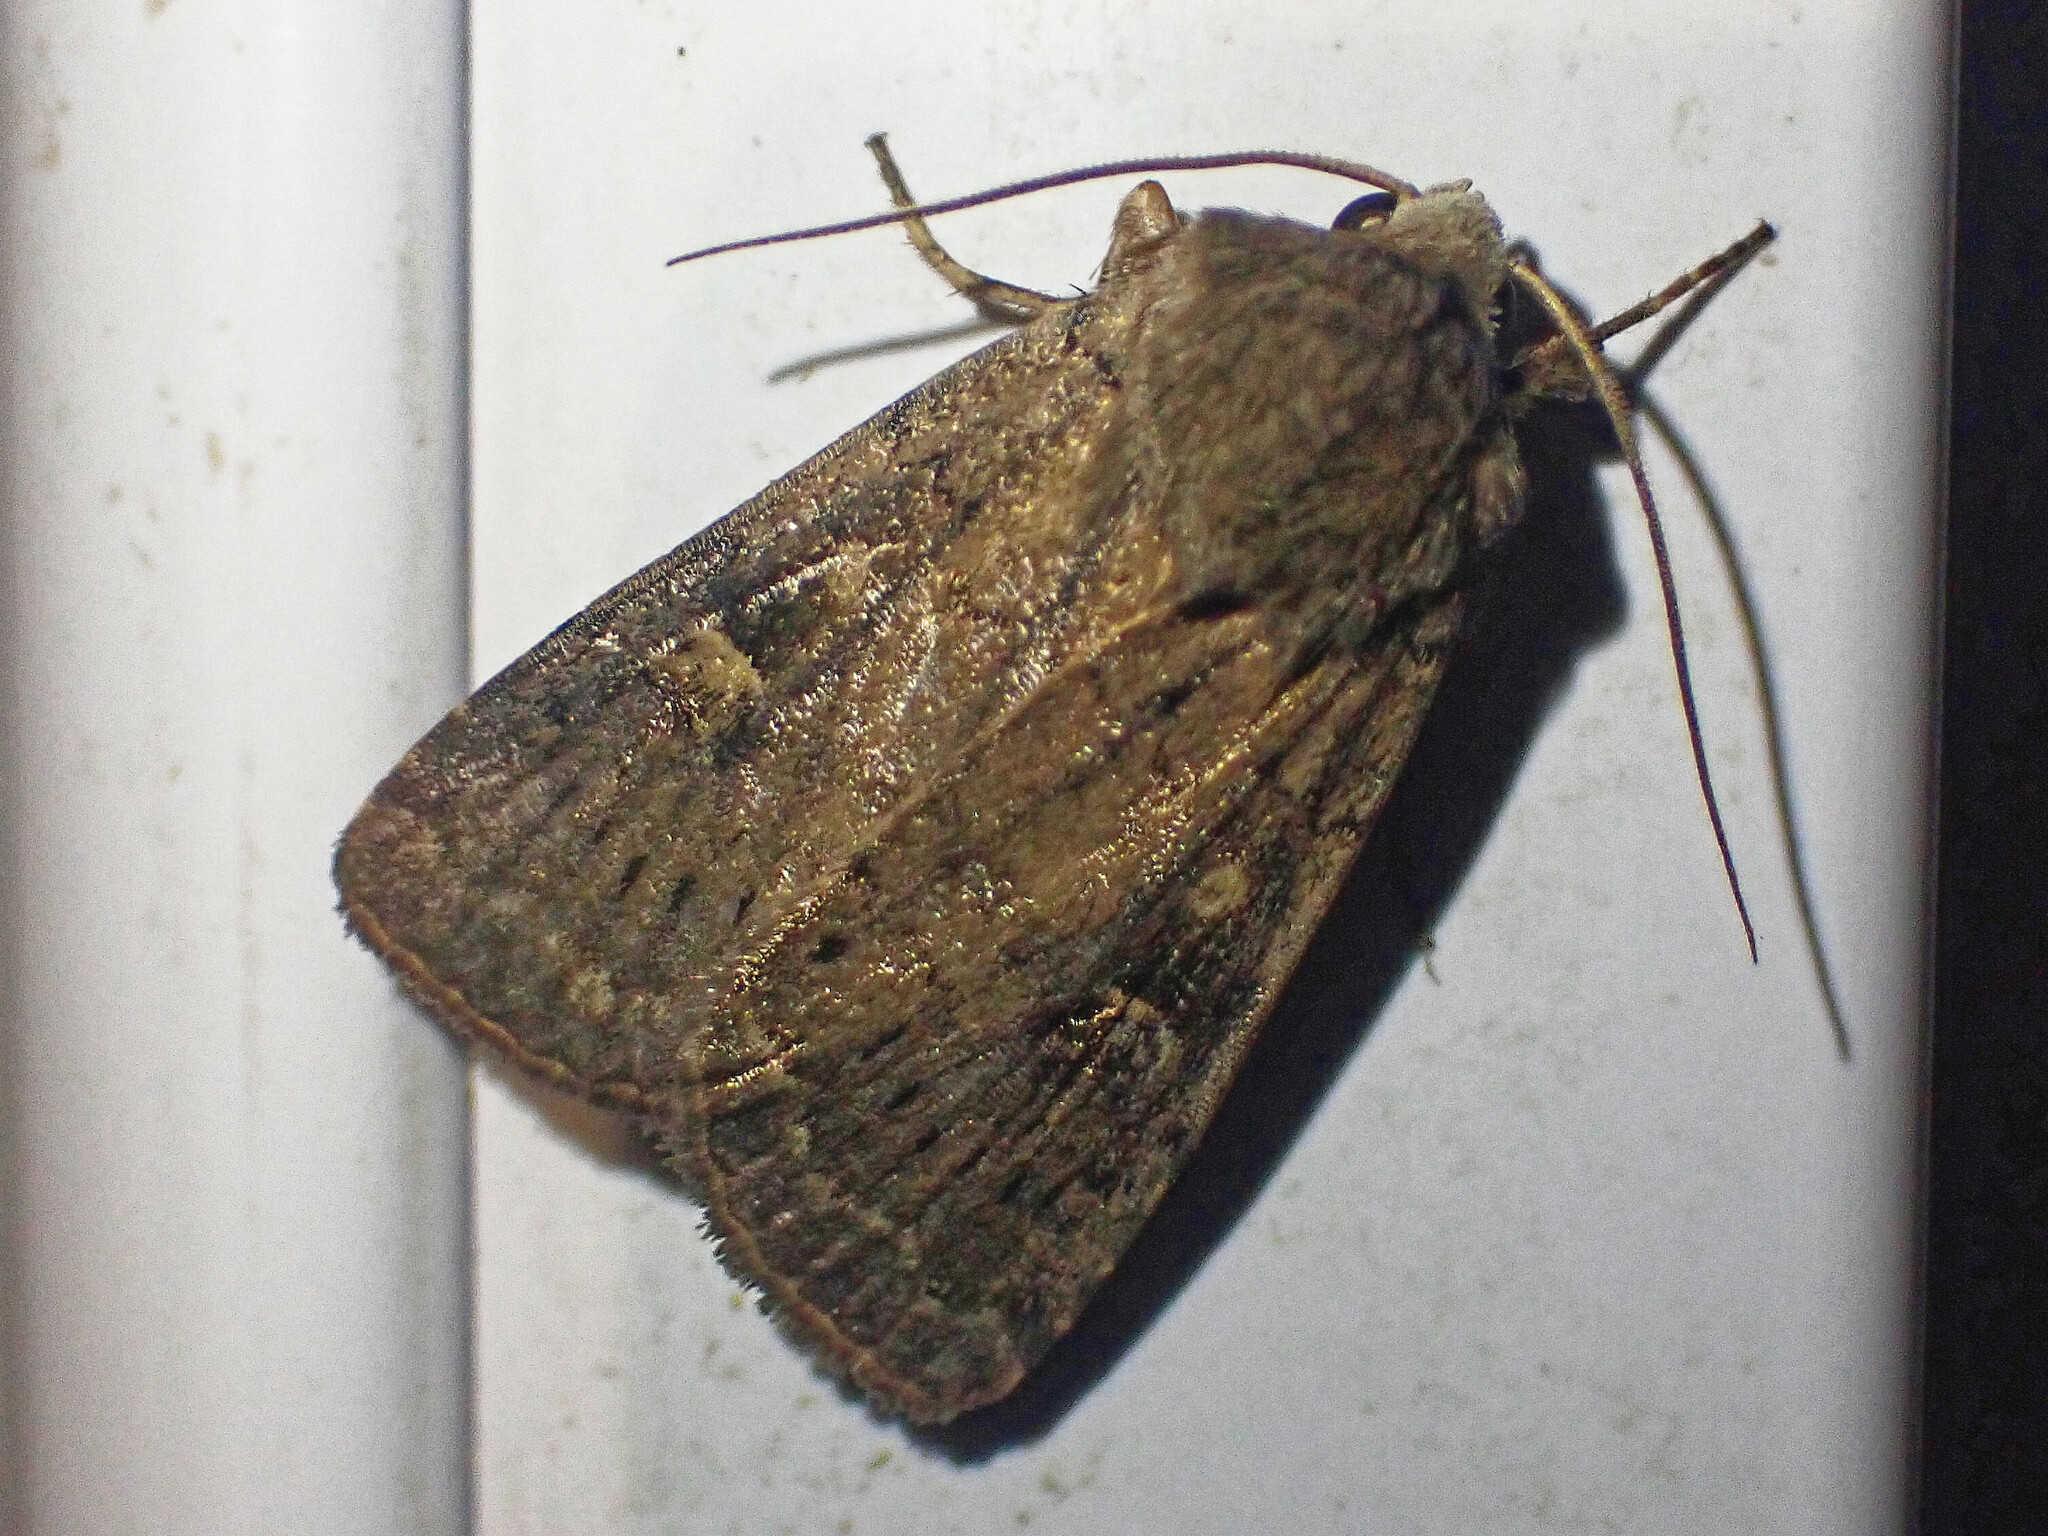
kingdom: Animalia
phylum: Arthropoda
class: Insecta
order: Lepidoptera
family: Noctuidae
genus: Xestia
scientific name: Xestia xanthographa
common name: Square-spot rustic
